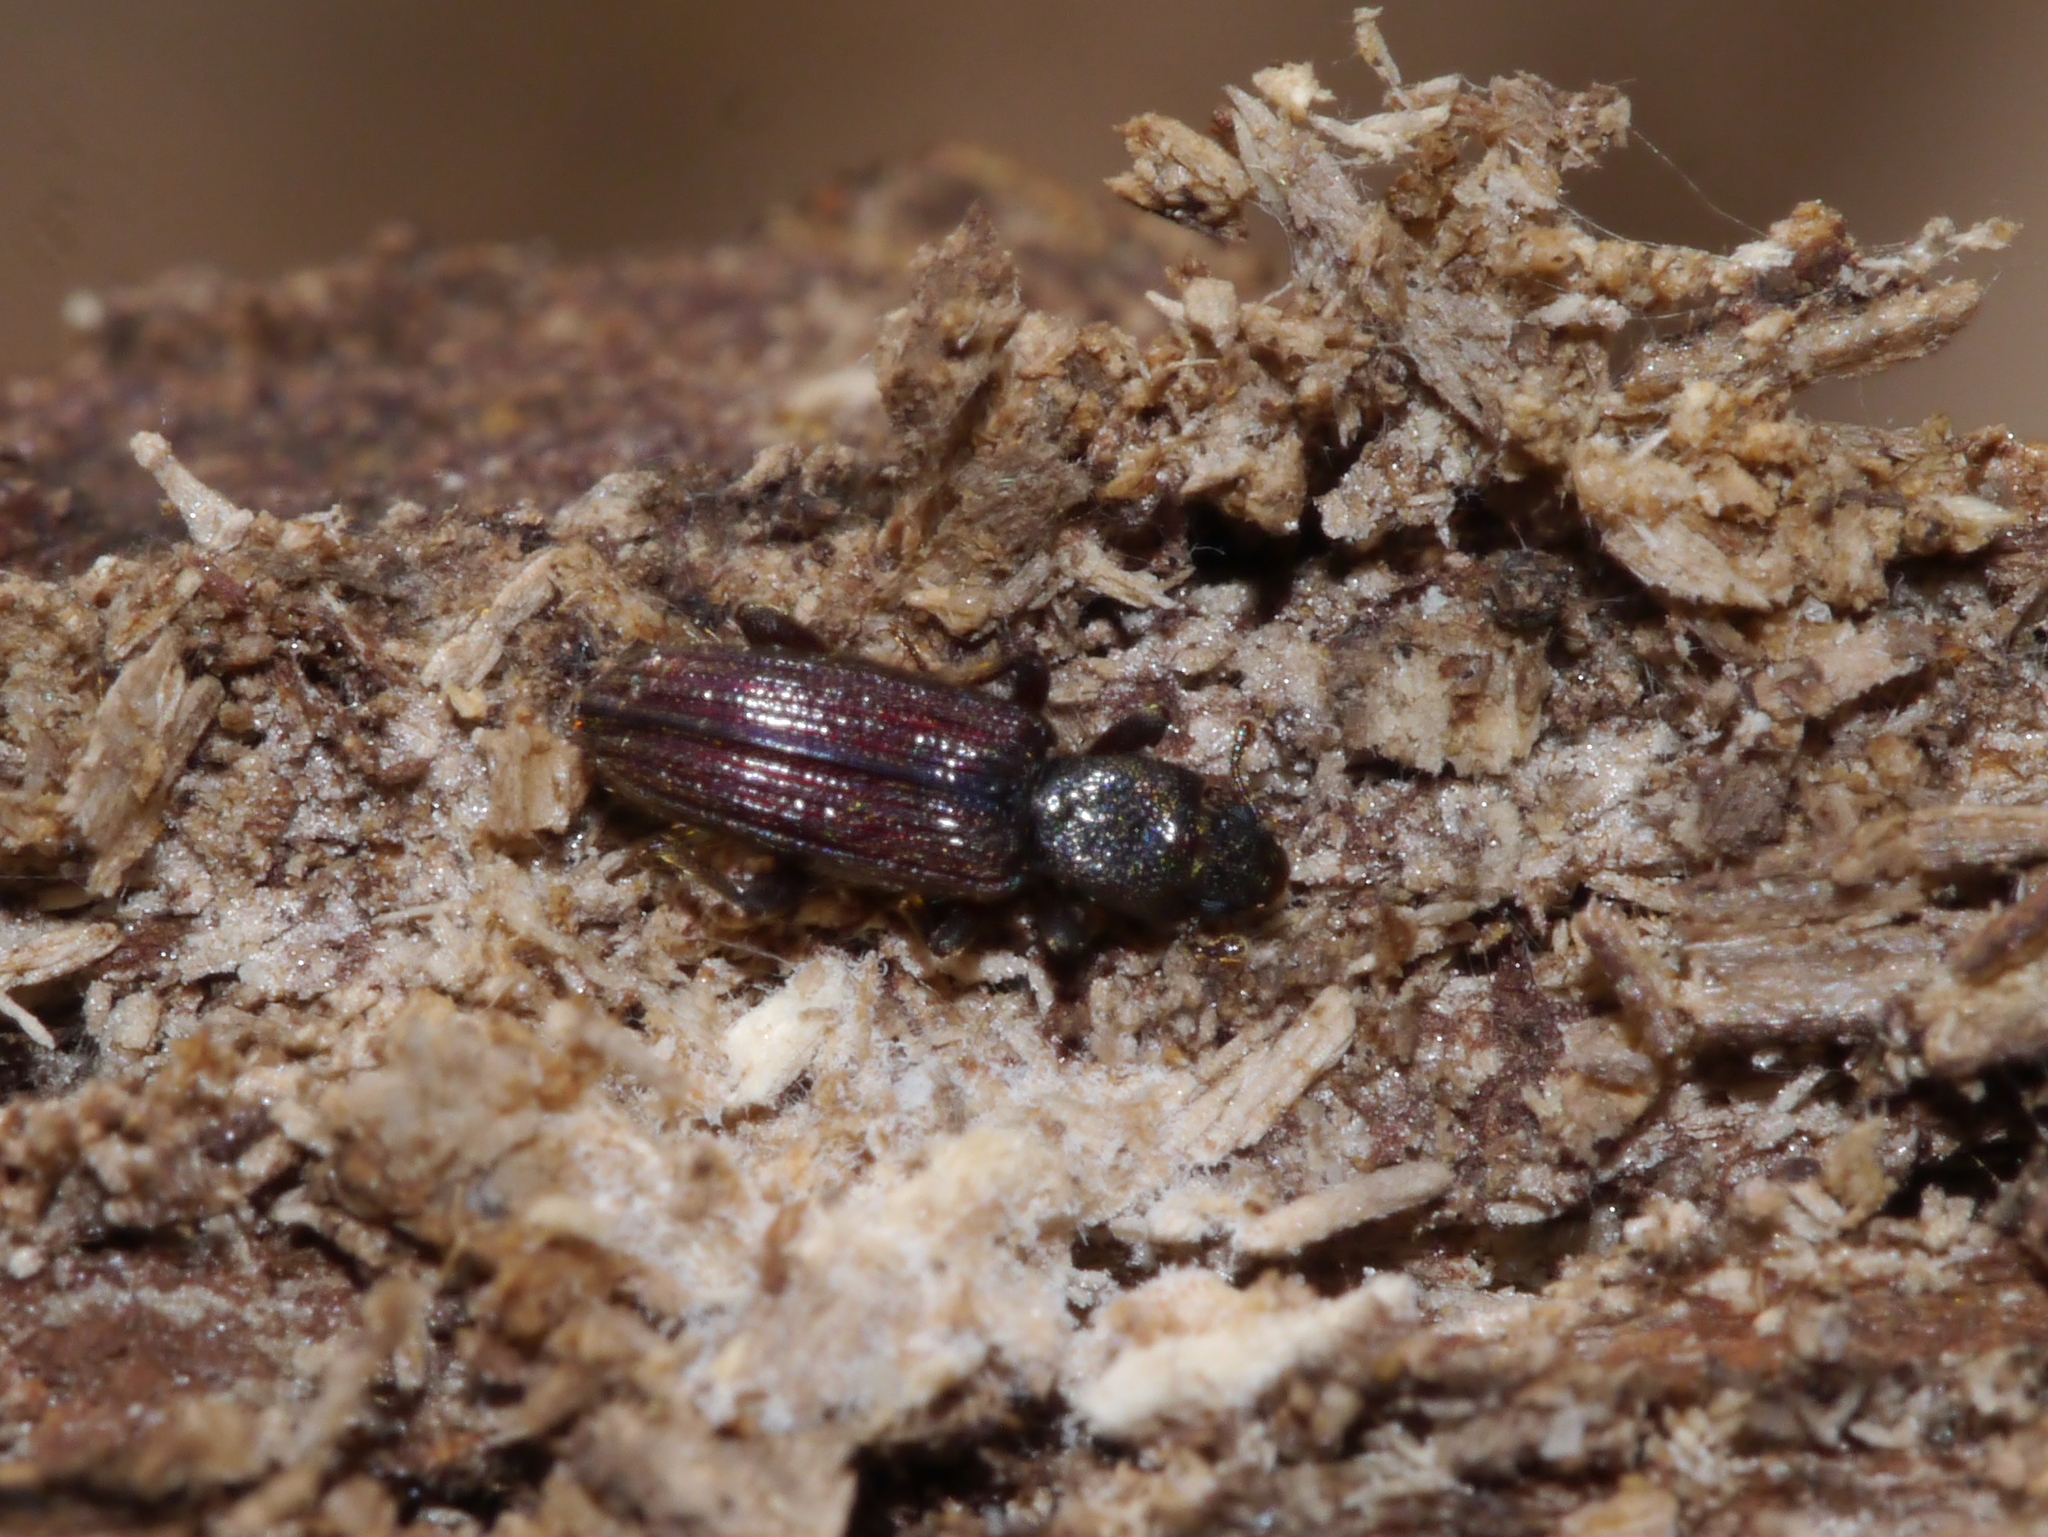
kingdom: Animalia
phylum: Arthropoda
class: Insecta
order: Coleoptera
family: Bothrideridae
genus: Bothrideres
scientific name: Bothrideres cryptus
